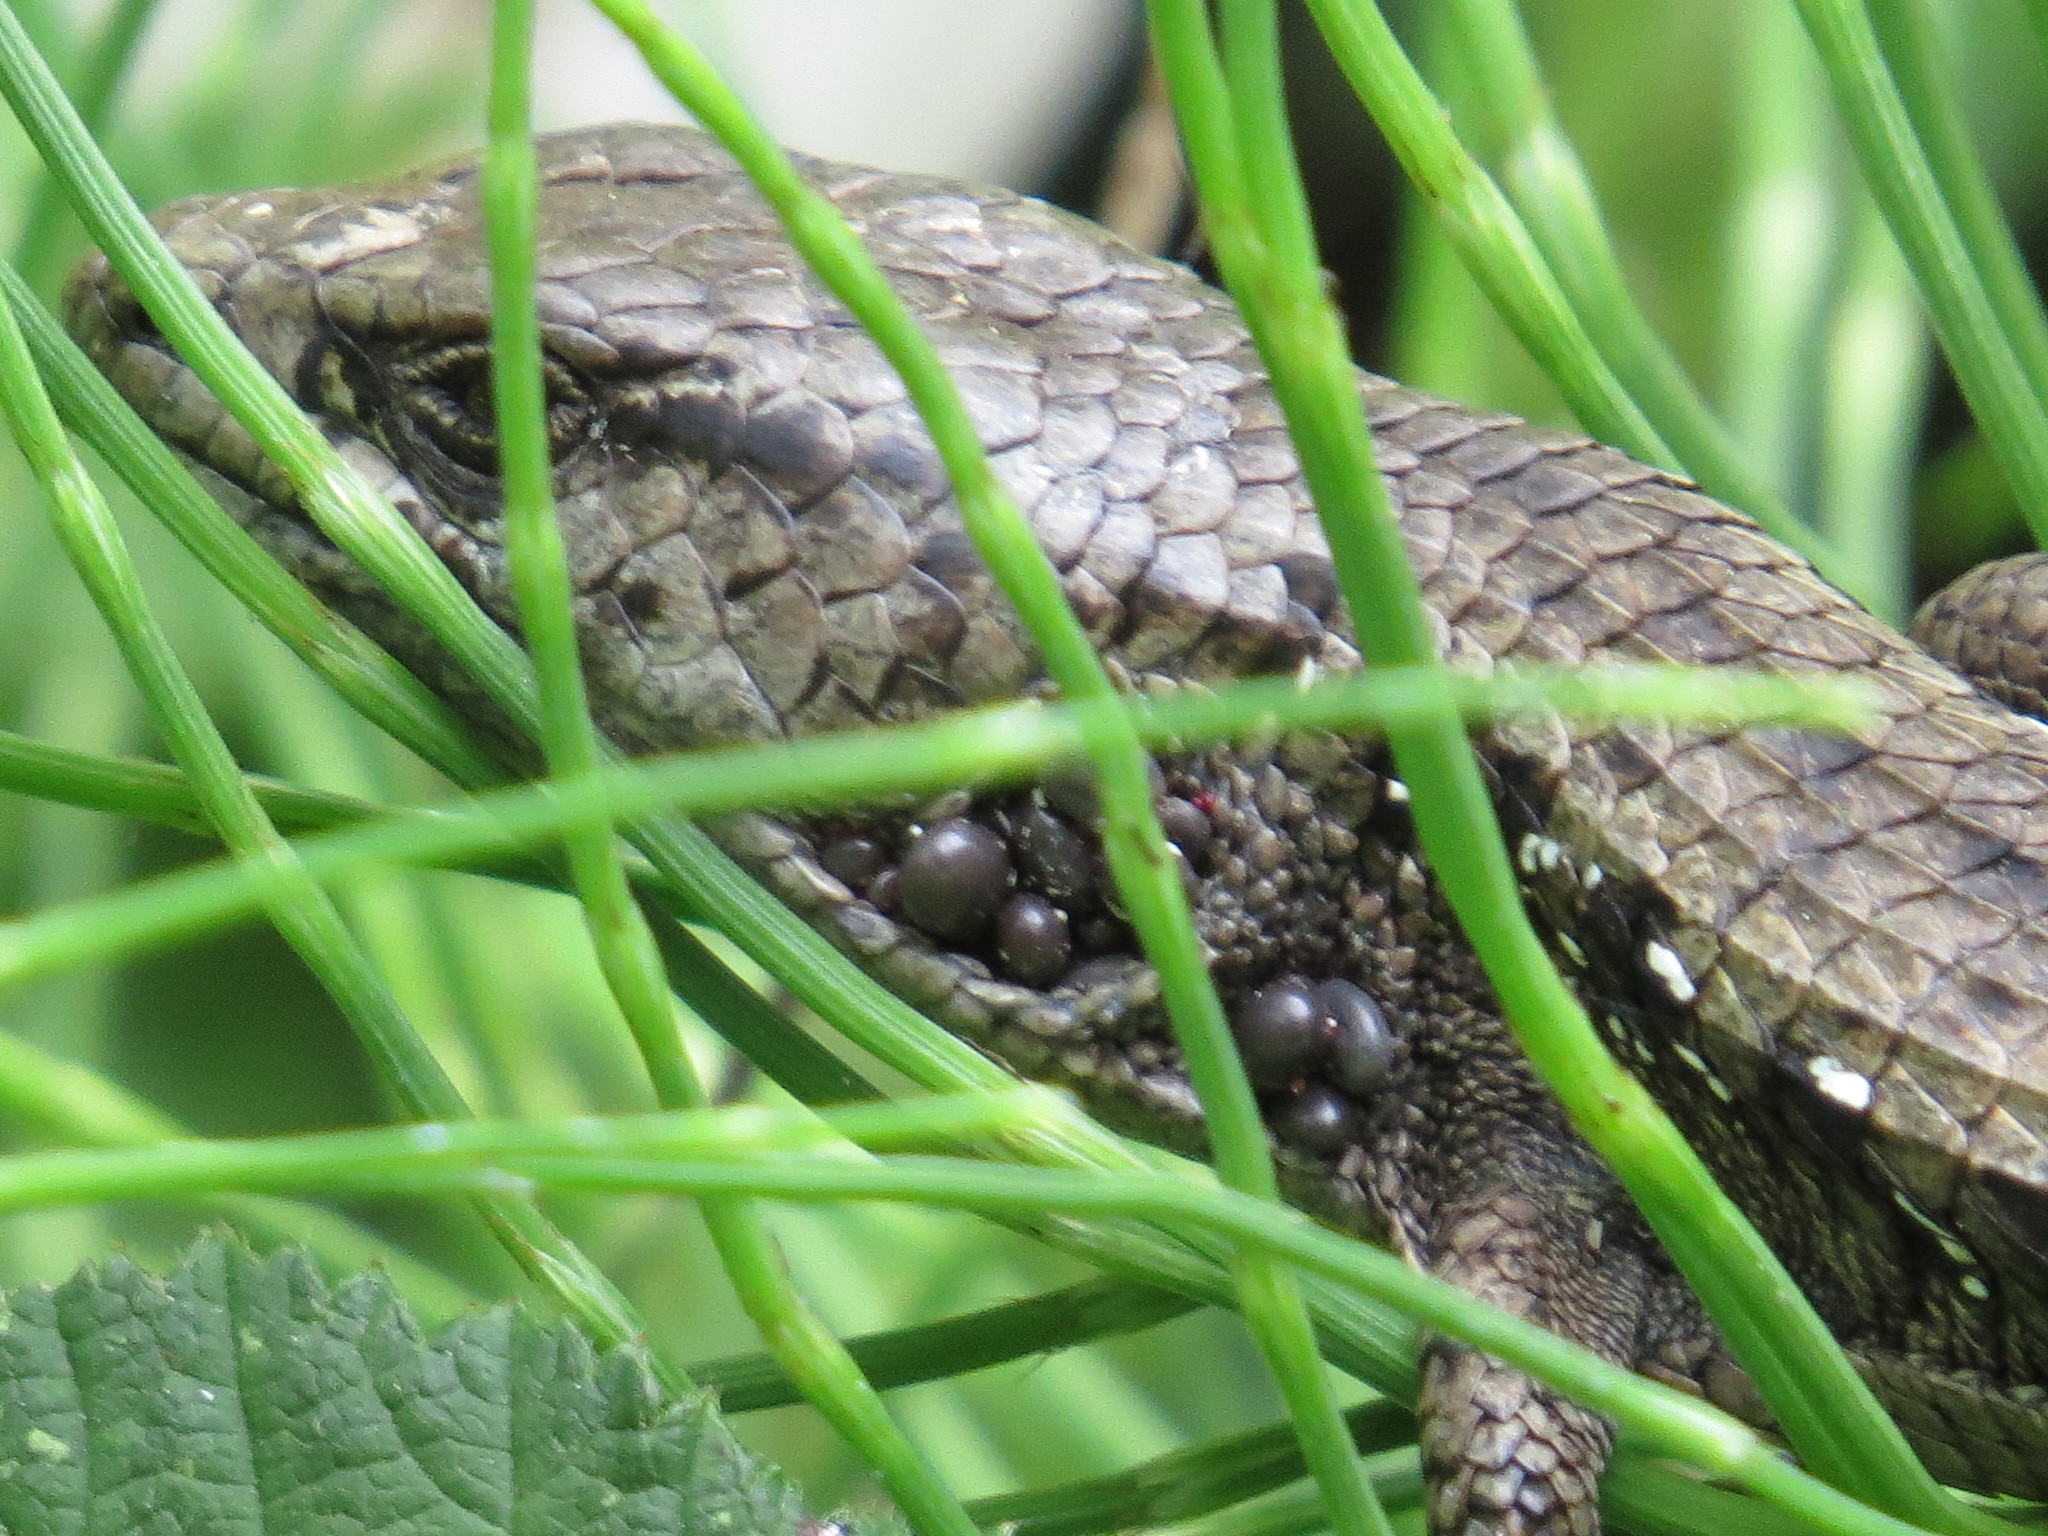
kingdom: Animalia
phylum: Chordata
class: Squamata
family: Anguidae
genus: Elgaria
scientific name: Elgaria coerulea
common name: Northern alligator lizard
